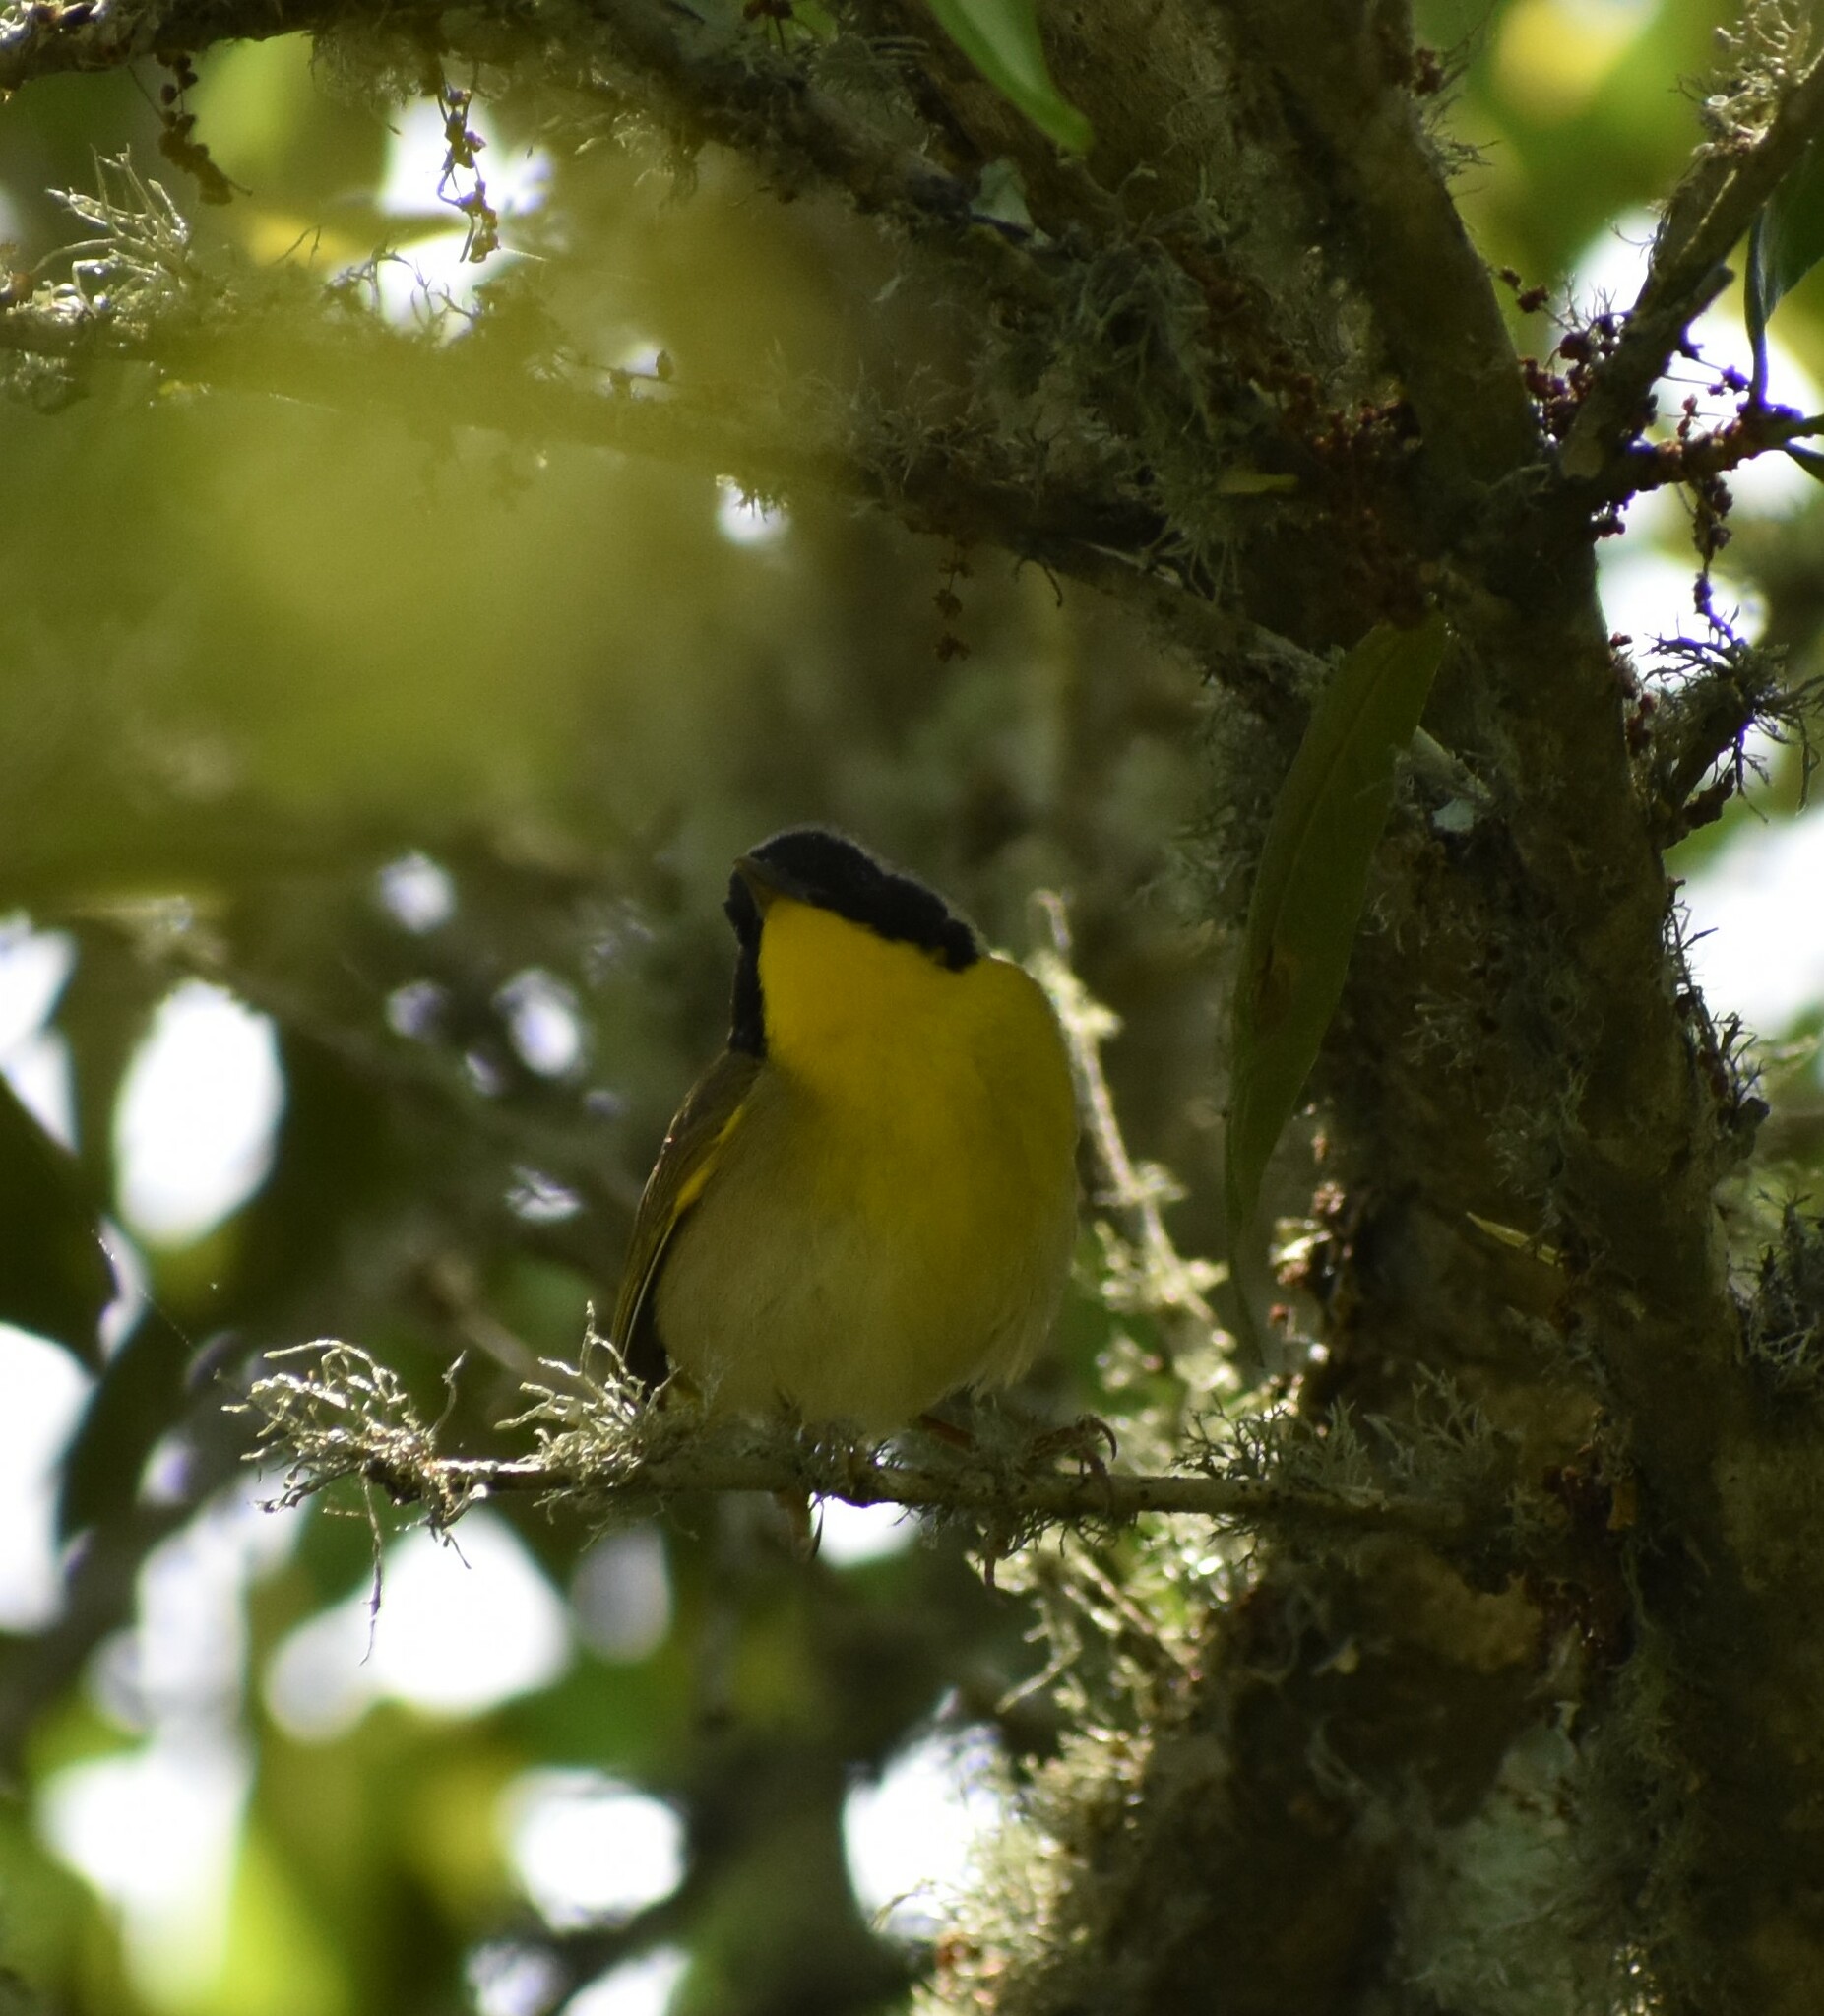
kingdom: Animalia
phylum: Chordata
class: Aves
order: Passeriformes
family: Parulidae
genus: Geothlypis
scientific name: Geothlypis trichas
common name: Common yellowthroat
